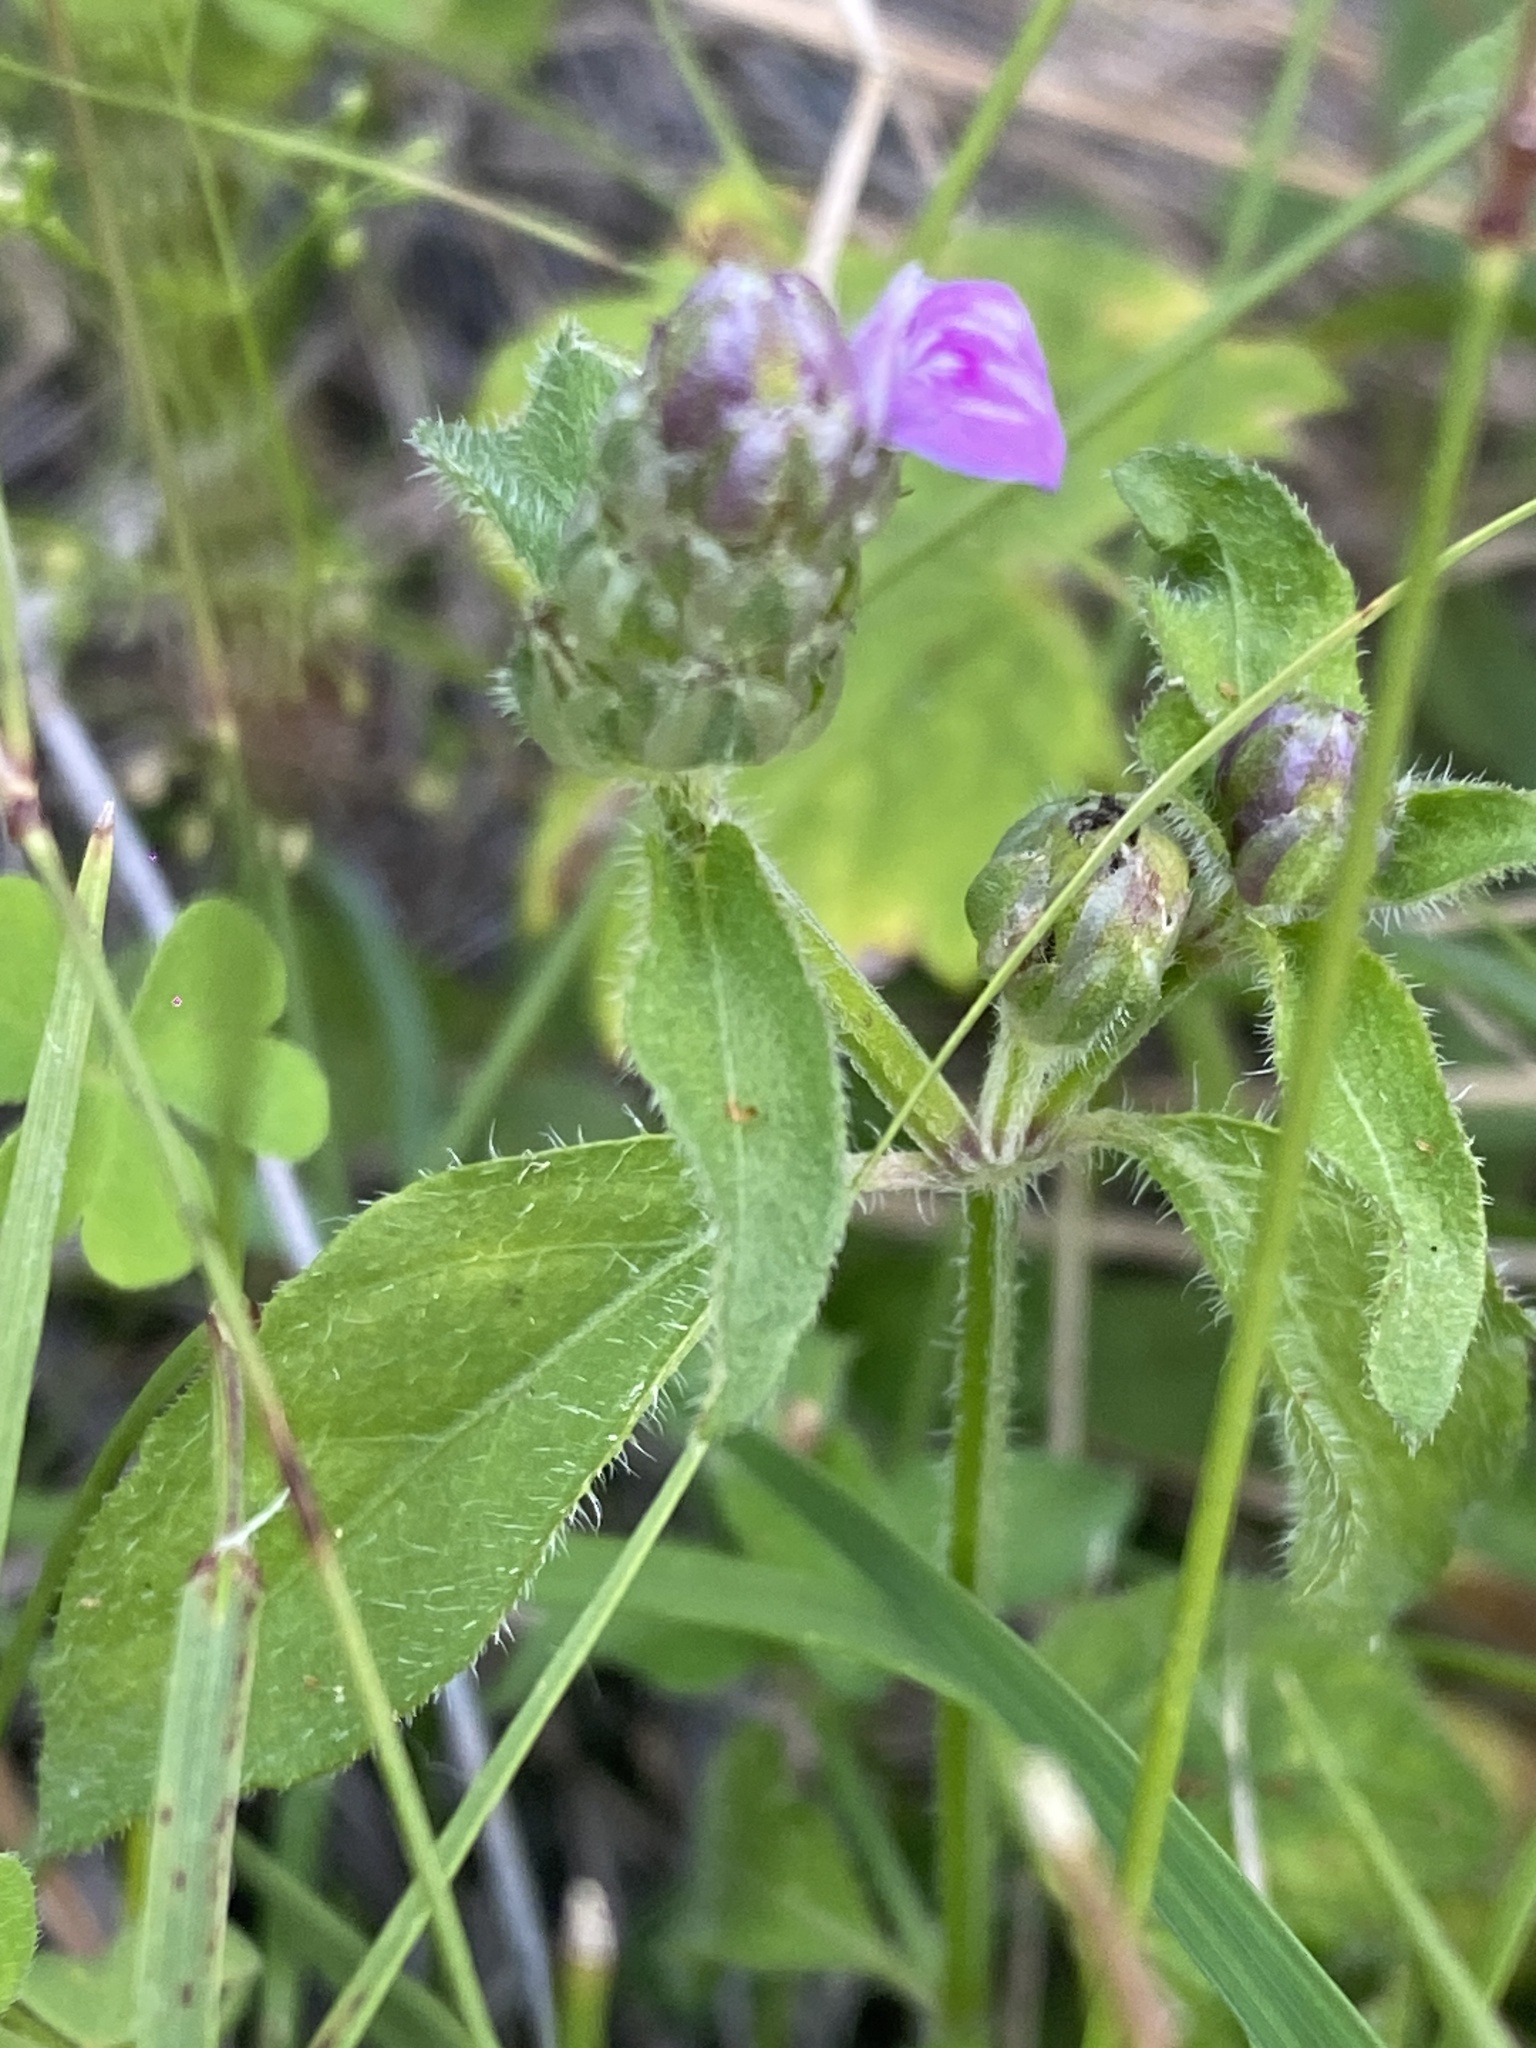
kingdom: Plantae
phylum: Tracheophyta
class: Magnoliopsida
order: Lamiales
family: Acanthaceae
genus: Rostellularia
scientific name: Rostellularia obtusa
